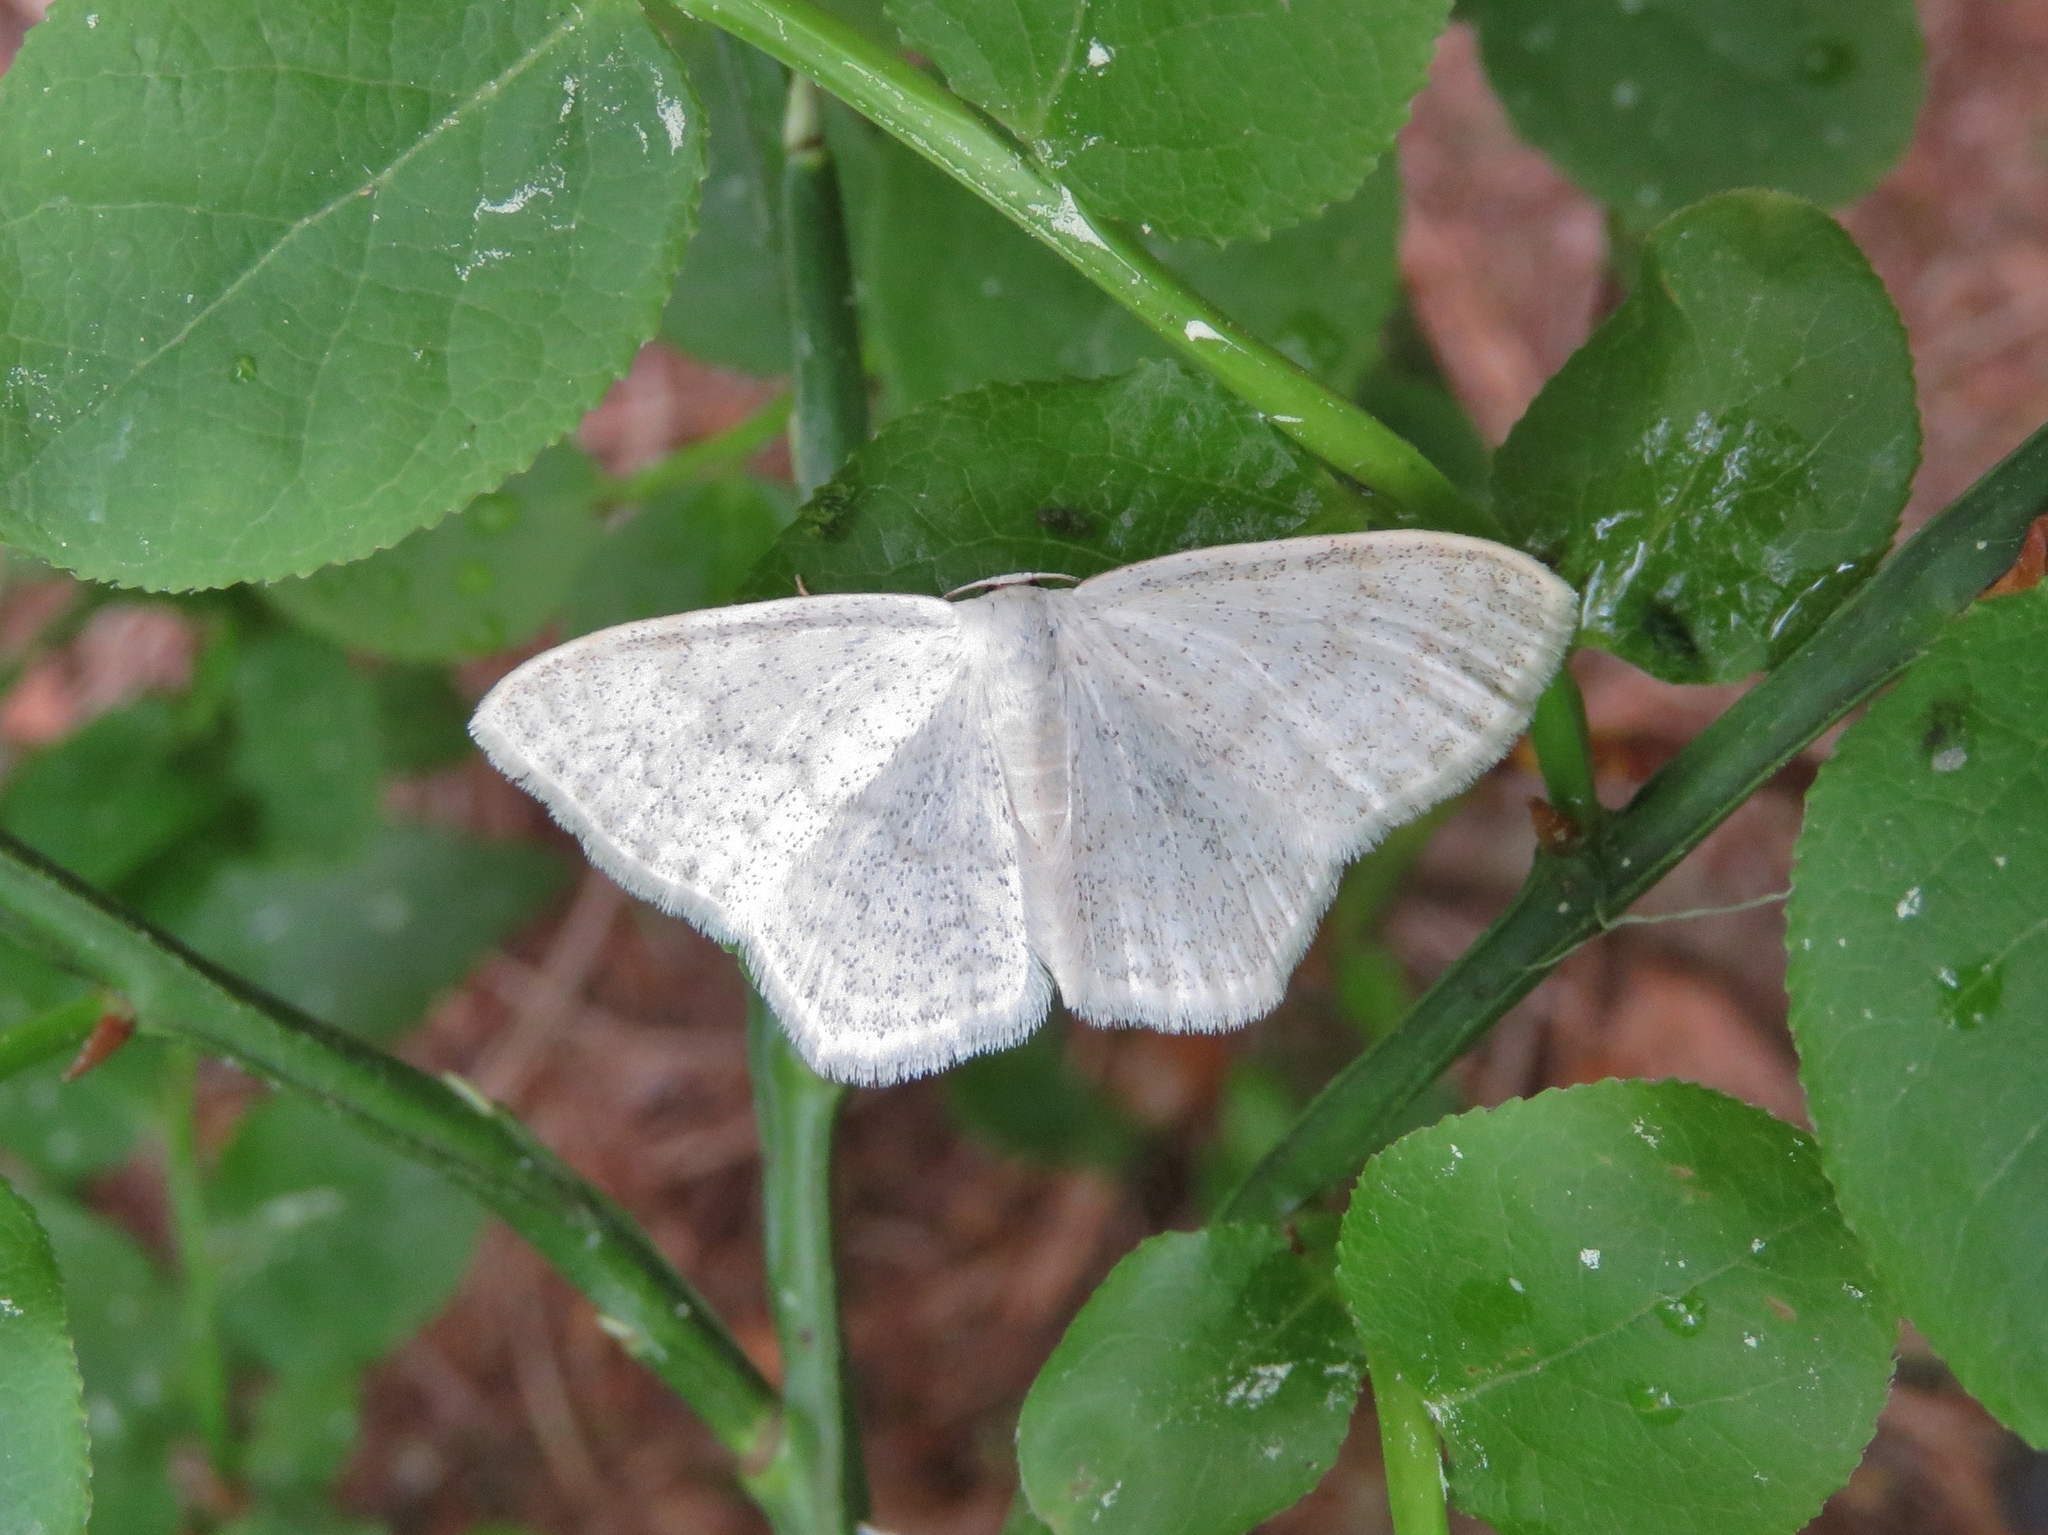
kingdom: Animalia
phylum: Arthropoda
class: Insecta
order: Lepidoptera
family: Geometridae
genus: Scopula
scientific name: Scopula floslactata
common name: Cream wave
